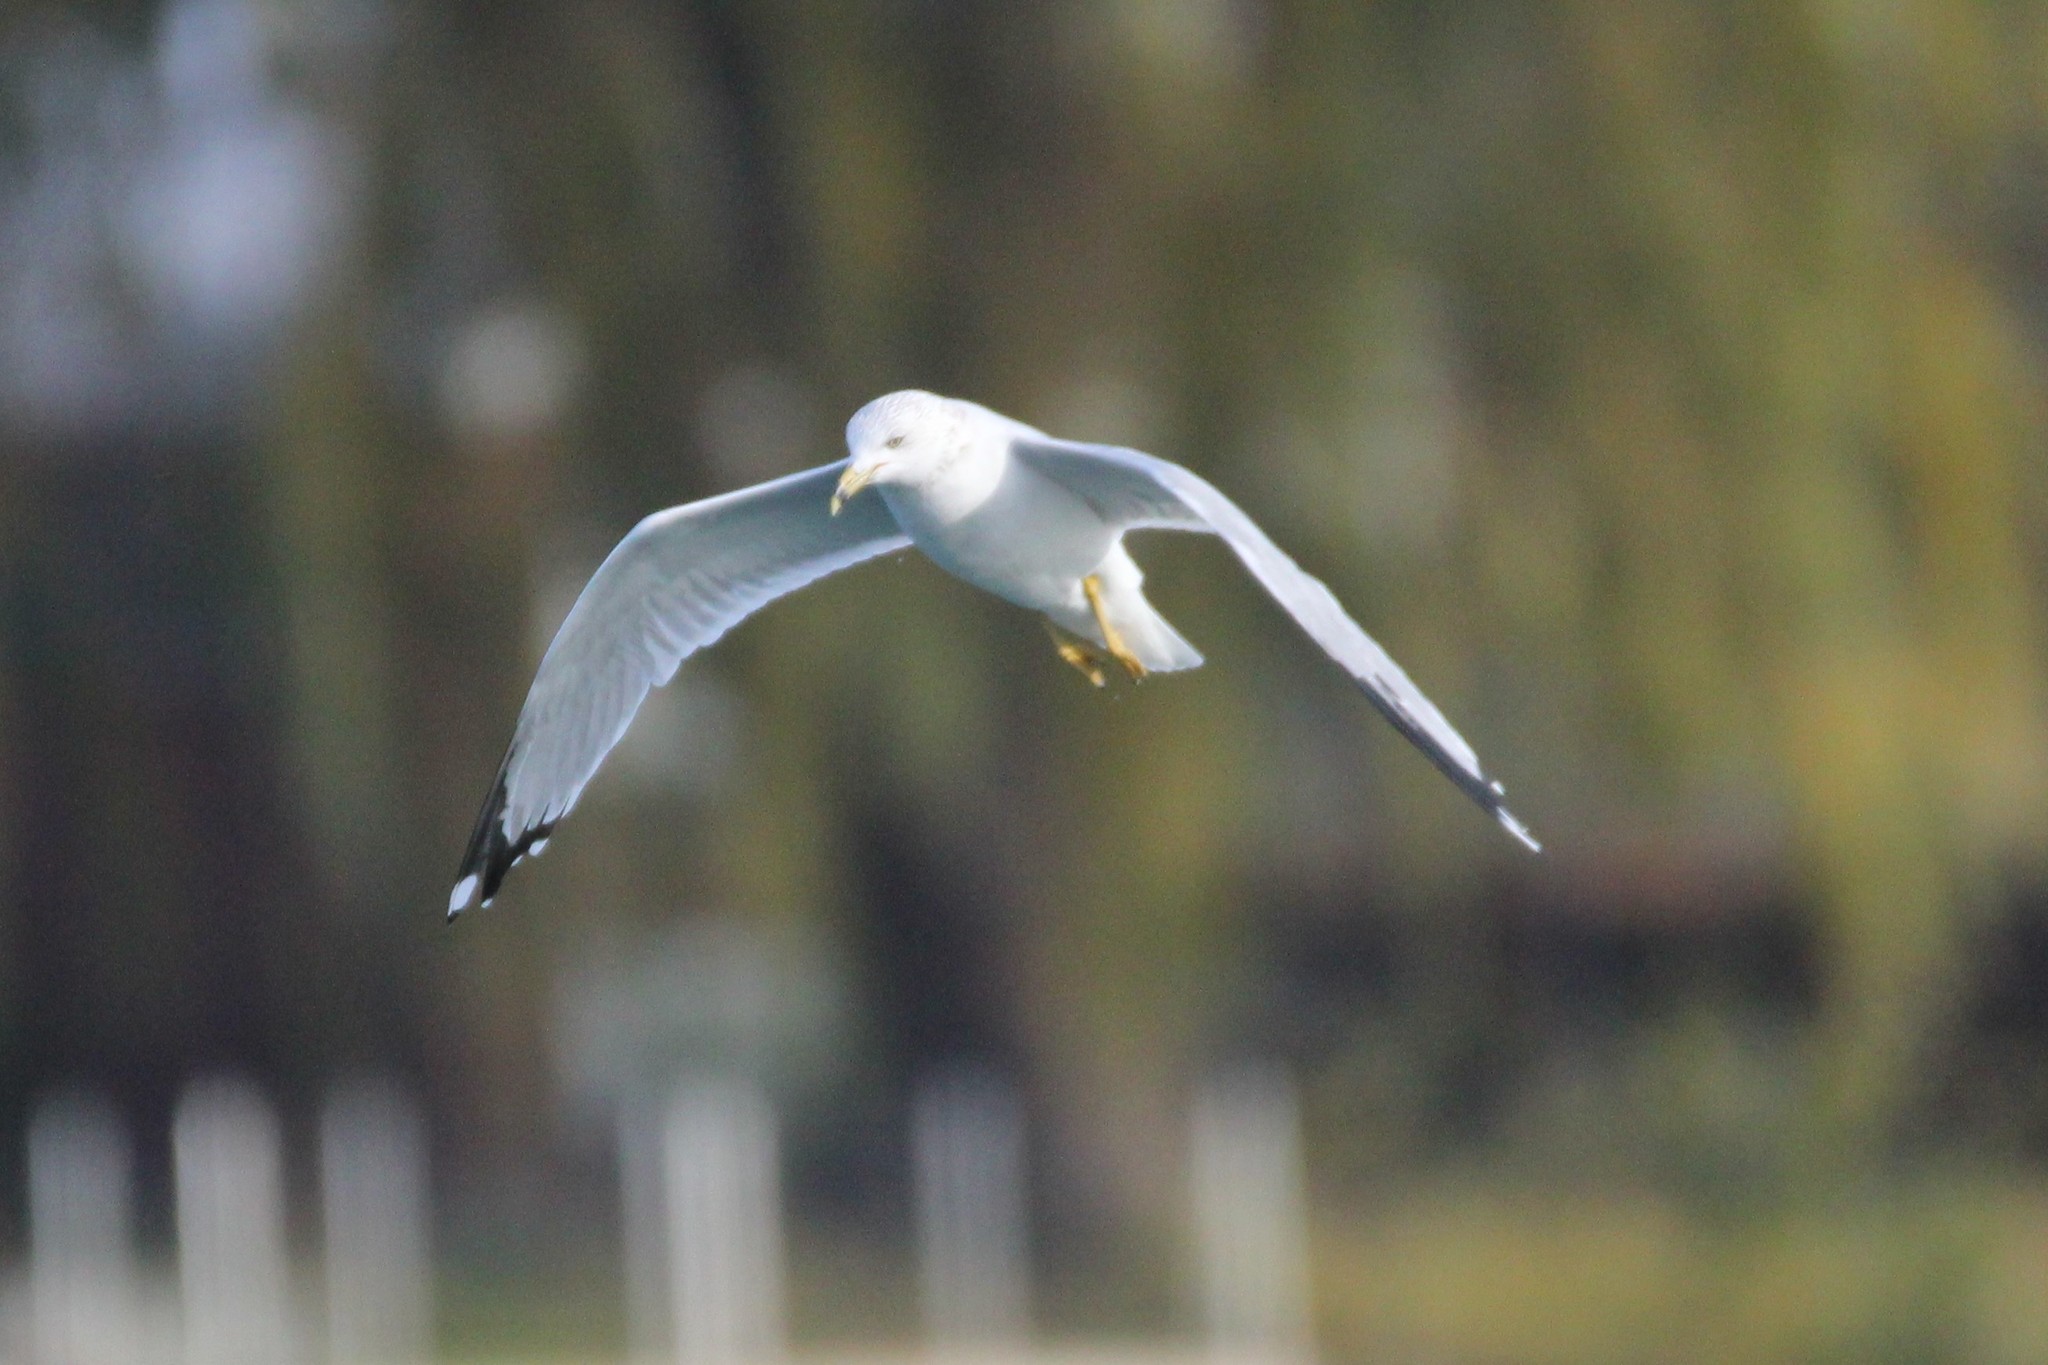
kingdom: Animalia
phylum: Chordata
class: Aves
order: Charadriiformes
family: Laridae
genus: Larus
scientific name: Larus delawarensis
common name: Ring-billed gull
